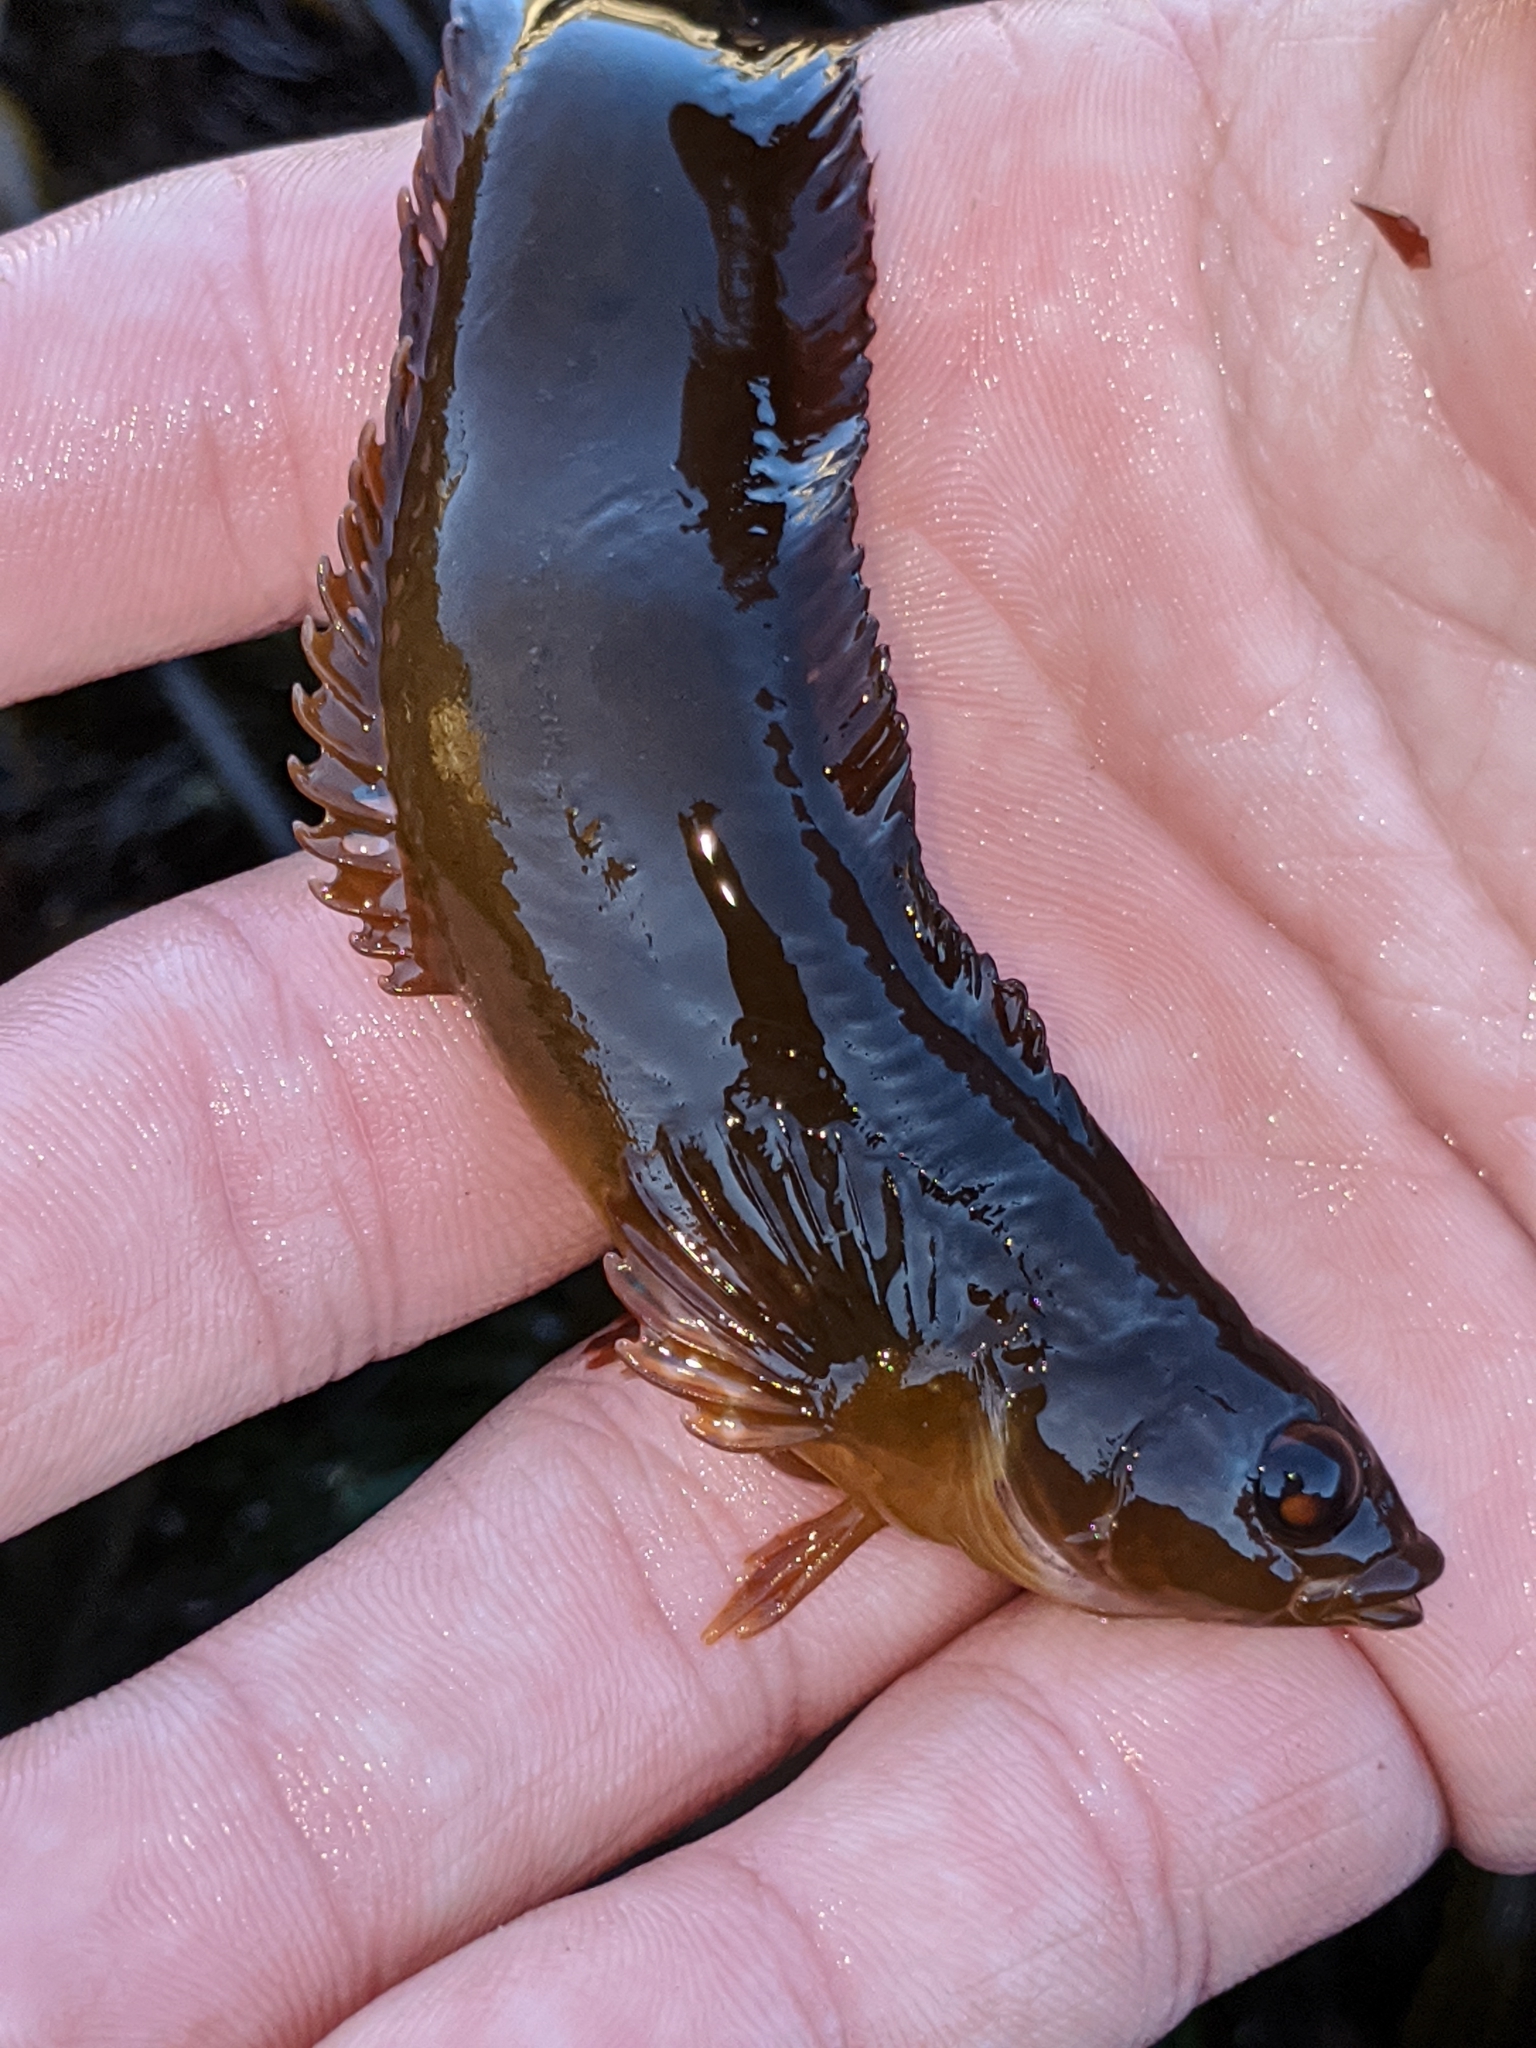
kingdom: Animalia
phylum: Chordata
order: Perciformes
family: Clinidae
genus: Gibbonsia
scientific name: Gibbonsia metzi
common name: Striped kelpfish
